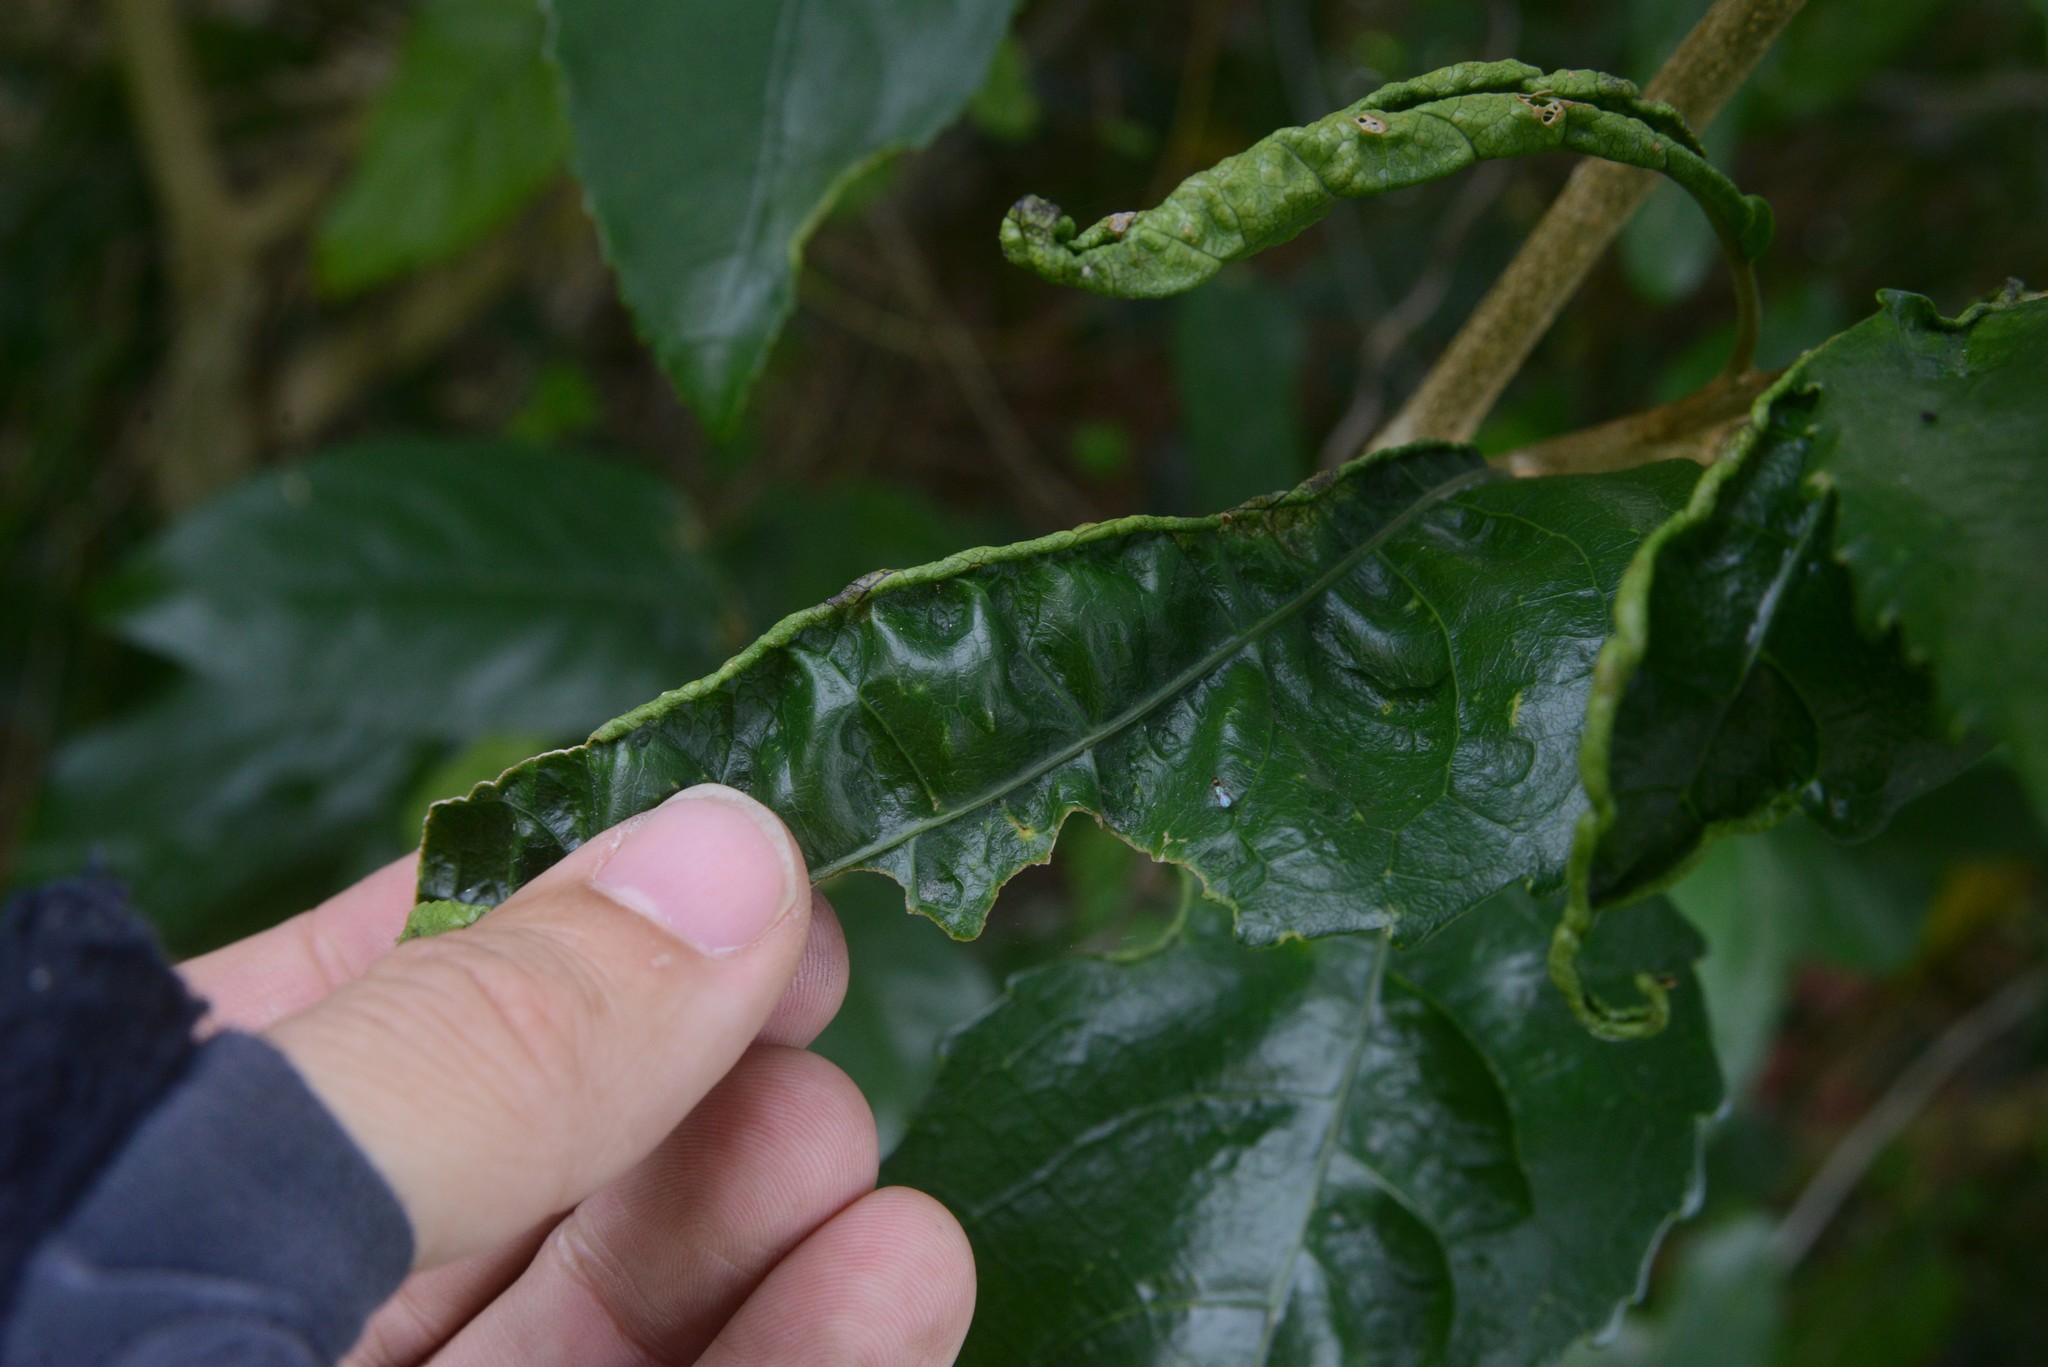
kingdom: Animalia
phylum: Arthropoda
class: Arachnida
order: Trombidiformes
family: Eriophyidae
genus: Aceria
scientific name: Aceria
